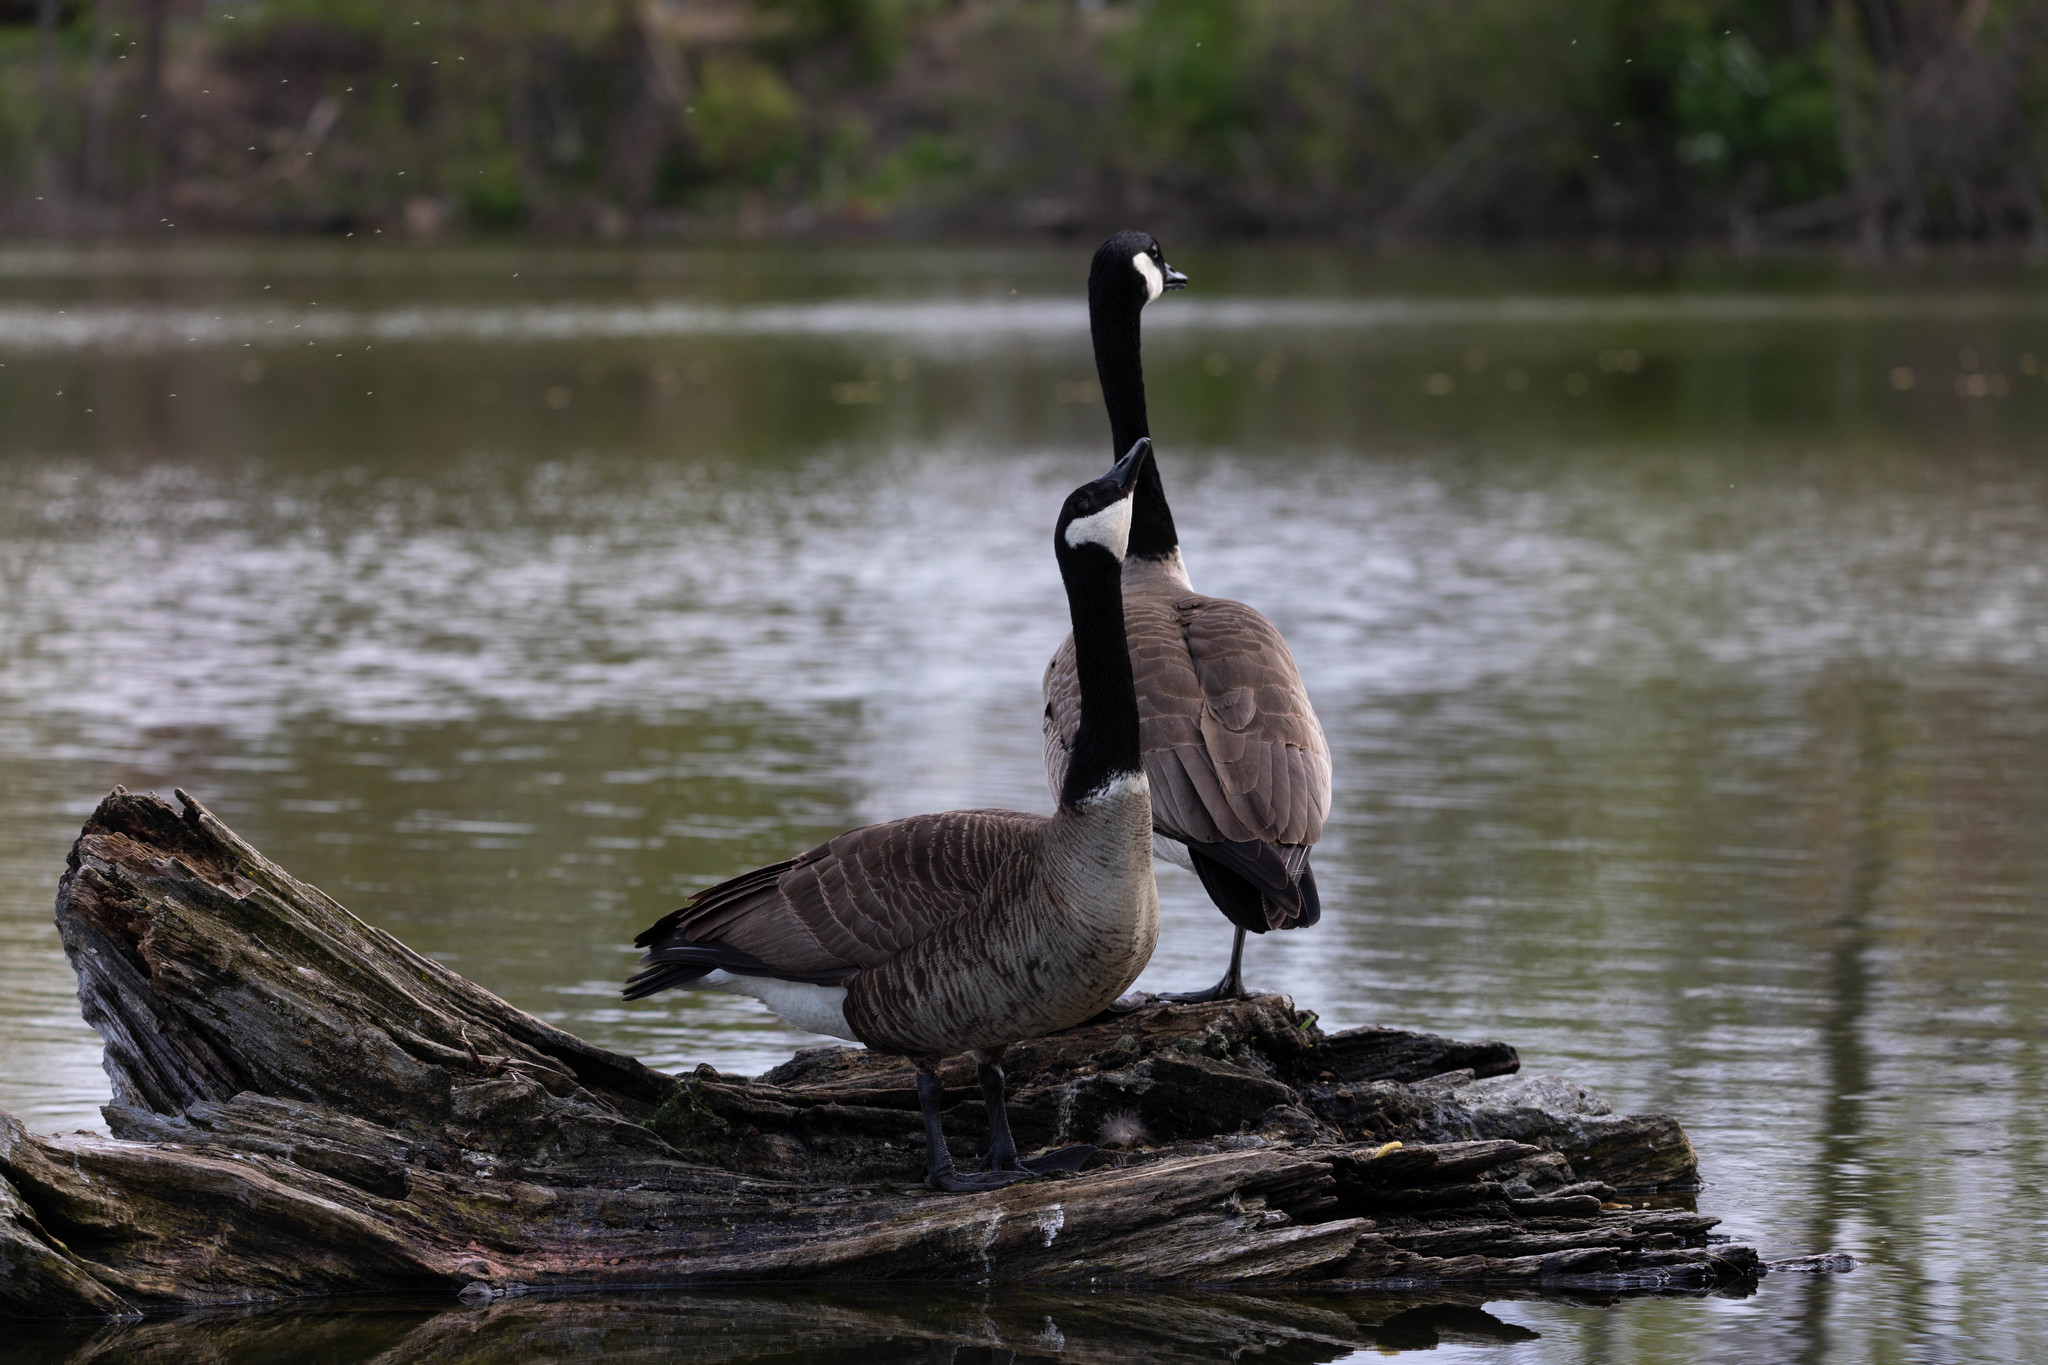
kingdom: Animalia
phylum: Chordata
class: Aves
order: Anseriformes
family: Anatidae
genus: Branta
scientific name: Branta canadensis
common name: Canada goose
